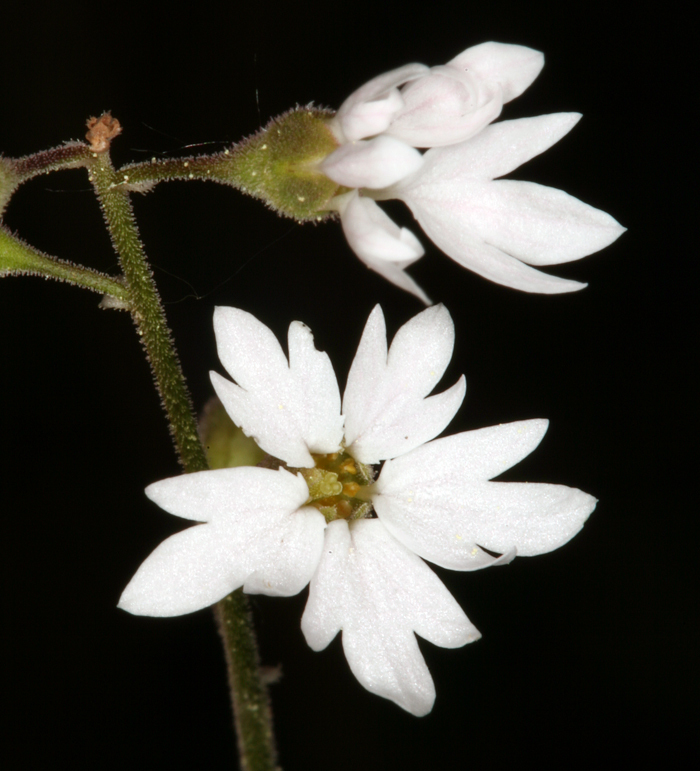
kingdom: Plantae
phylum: Tracheophyta
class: Magnoliopsida
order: Saxifragales
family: Saxifragaceae
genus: Lithophragma
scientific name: Lithophragma parviflorum
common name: Small-flowered fringe-cup
